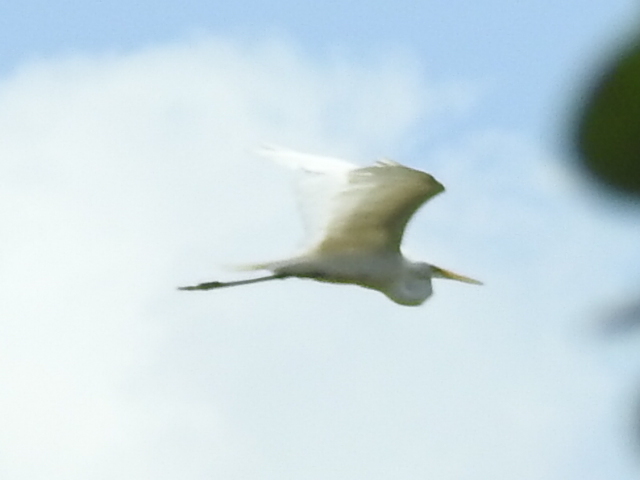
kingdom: Animalia
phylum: Chordata
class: Aves
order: Pelecaniformes
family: Ardeidae
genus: Ardea
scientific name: Ardea alba
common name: Great egret
